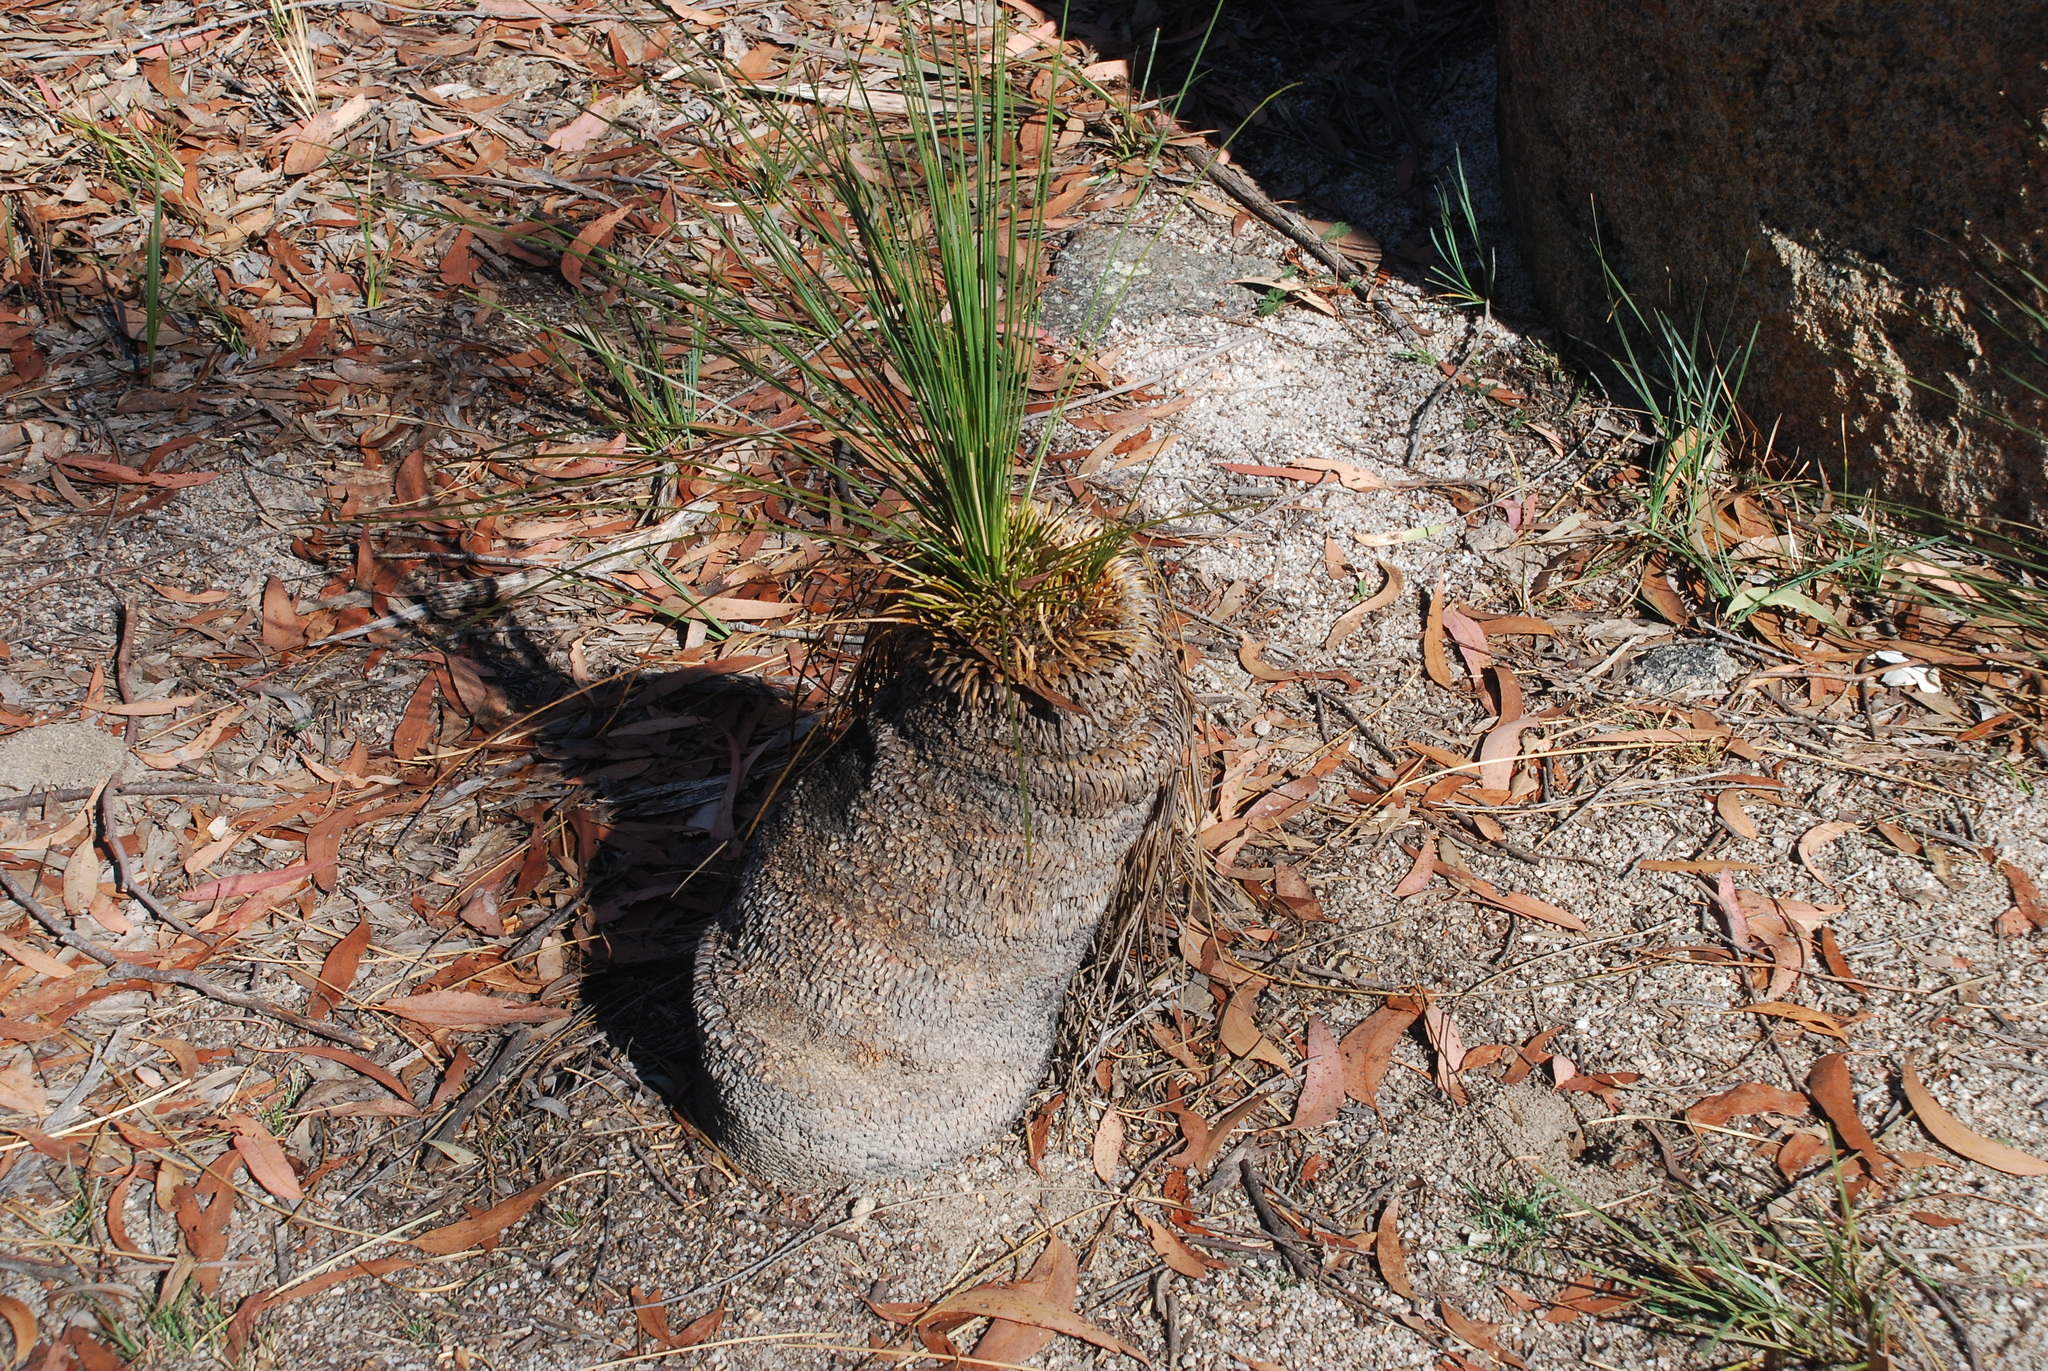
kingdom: Plantae
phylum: Tracheophyta
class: Liliopsida
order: Asparagales
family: Asphodelaceae
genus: Xanthorrhoea
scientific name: Xanthorrhoea glauca
